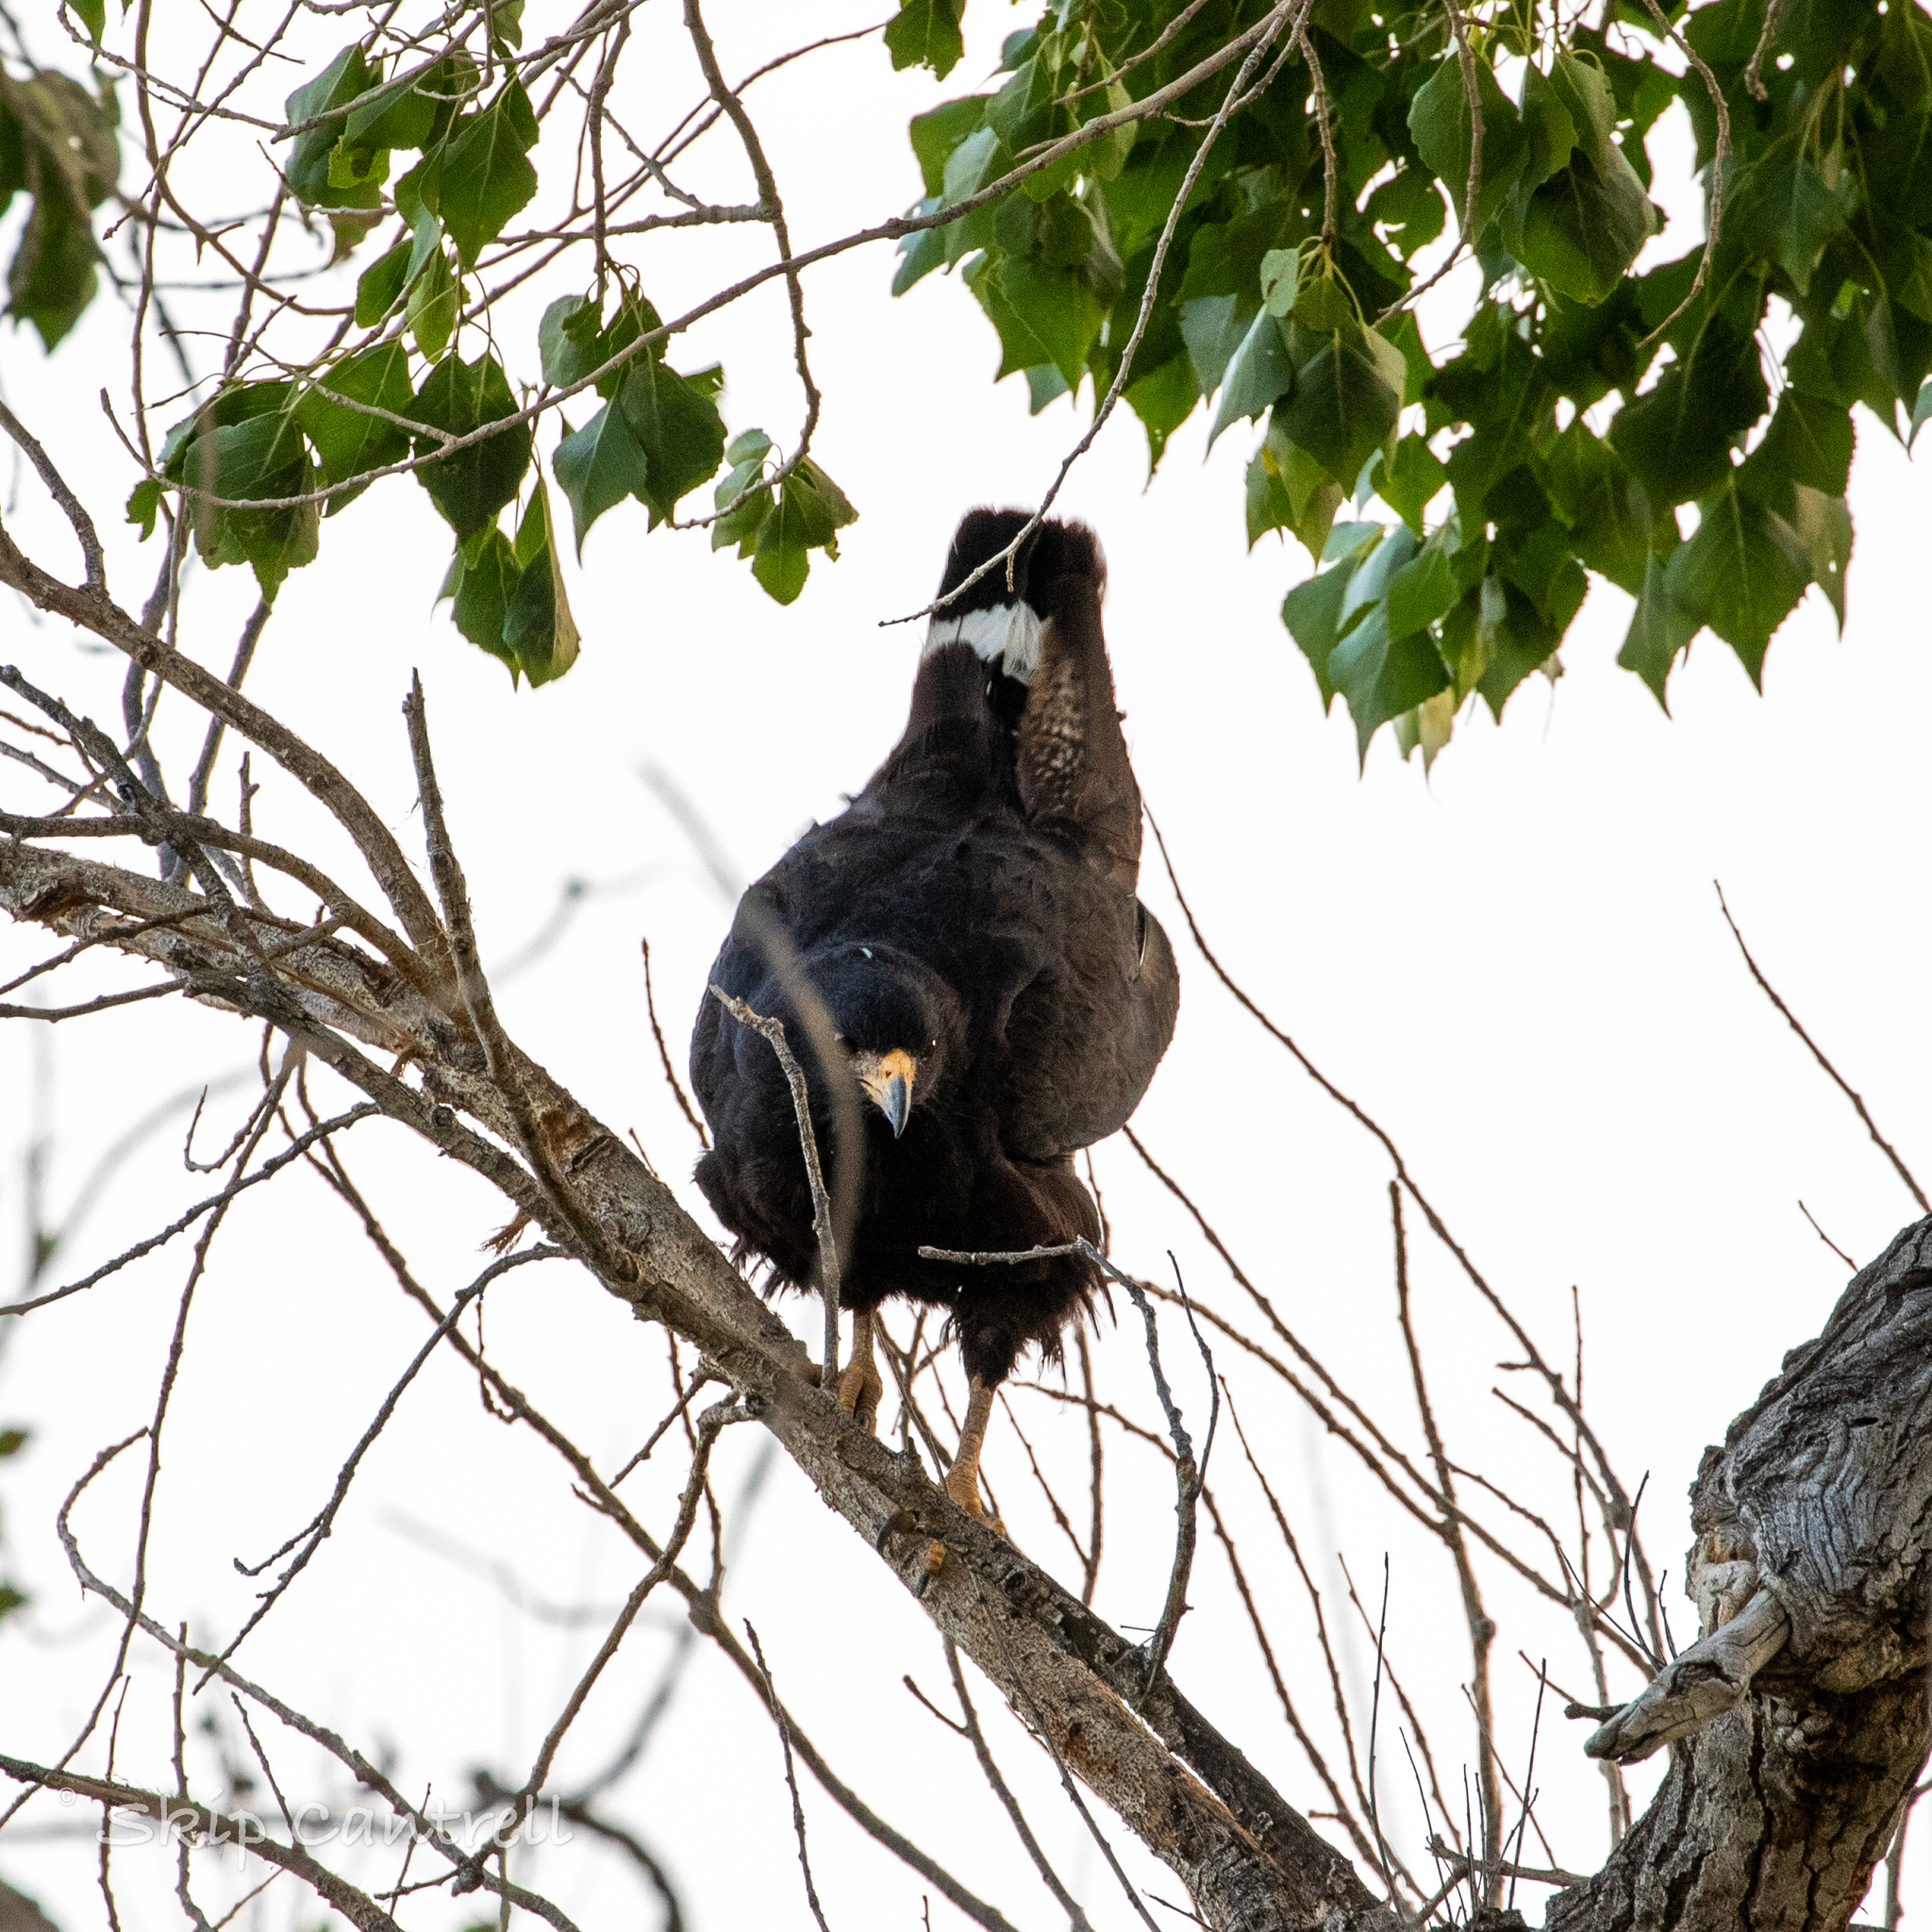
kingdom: Animalia
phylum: Chordata
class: Aves
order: Accipitriformes
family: Accipitridae
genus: Buteogallus
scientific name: Buteogallus anthracinus
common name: Common black hawk
